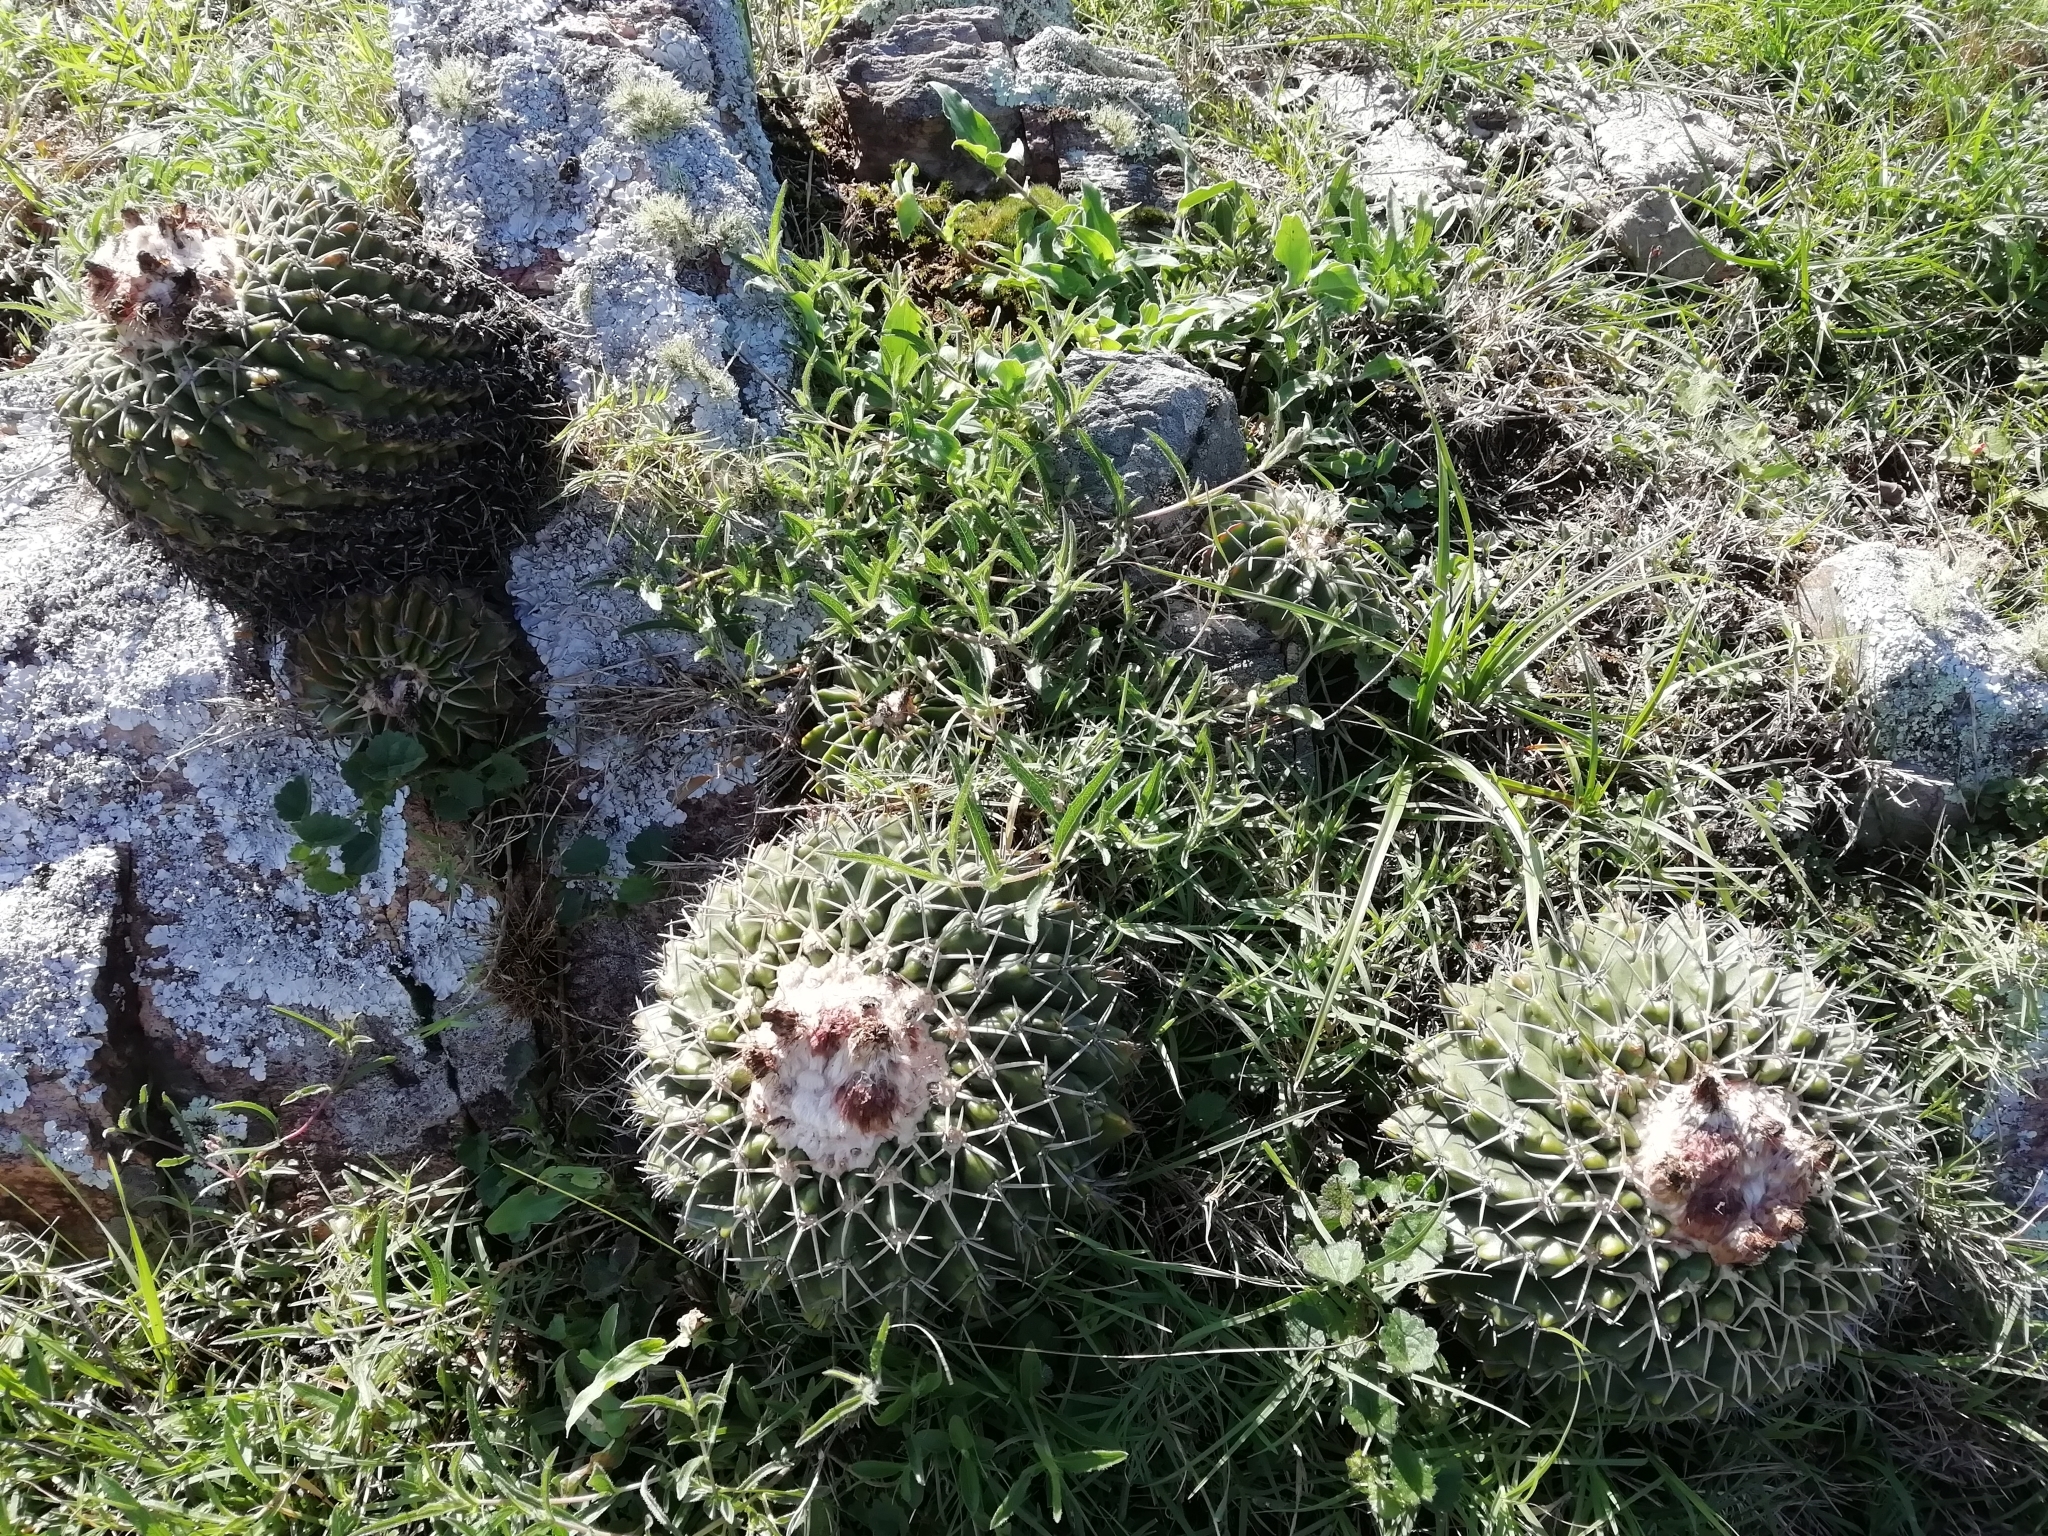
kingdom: Plantae
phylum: Tracheophyta
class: Magnoliopsida
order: Caryophyllales
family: Cactaceae
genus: Parodia
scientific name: Parodia erinacea
